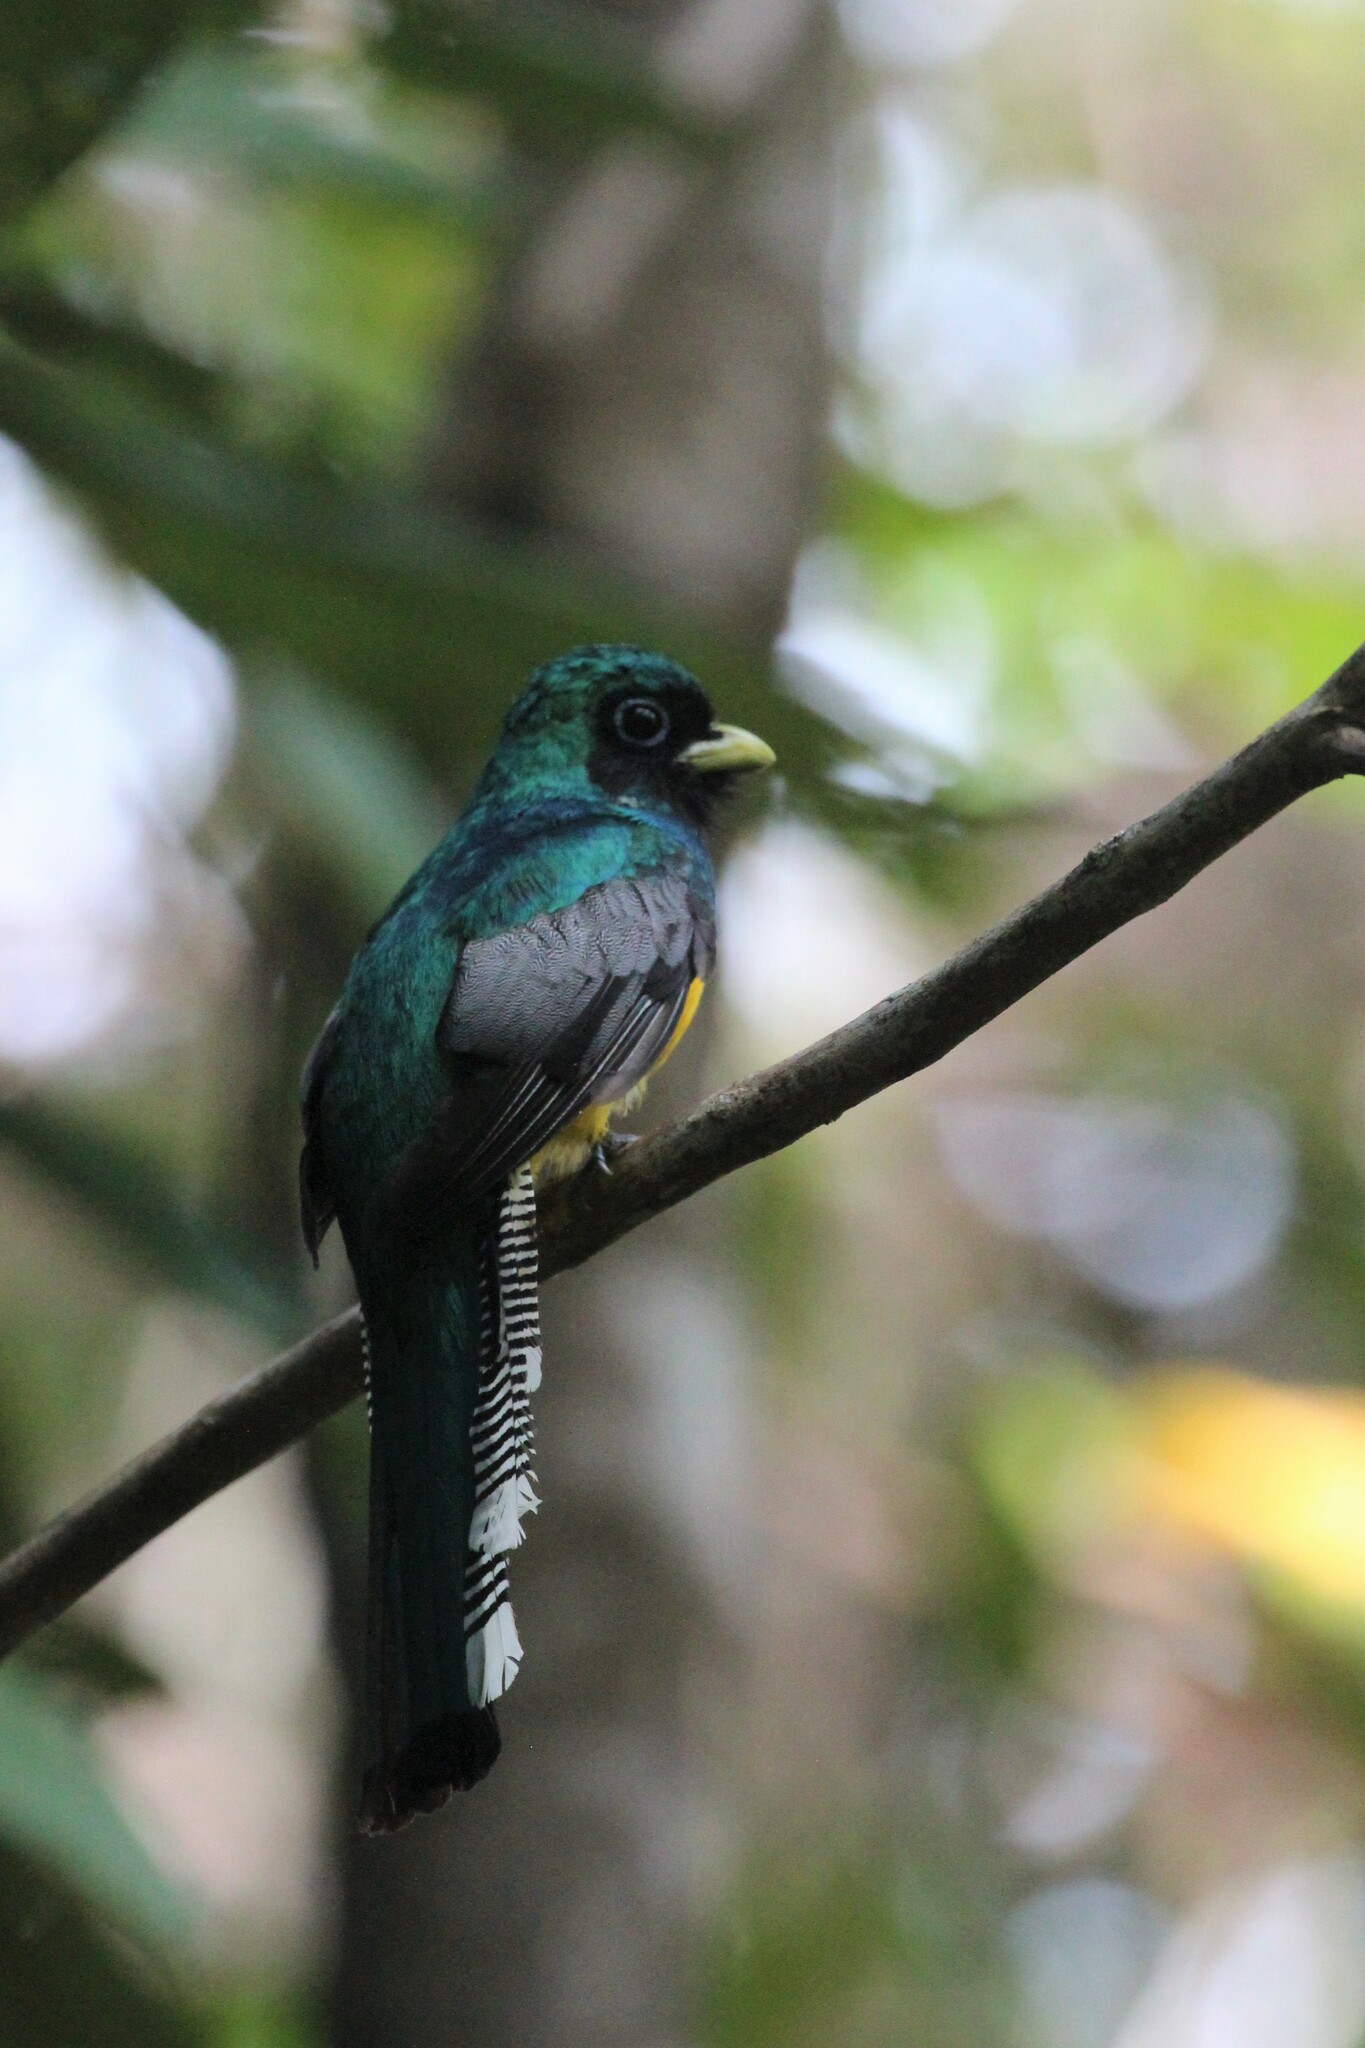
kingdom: Animalia
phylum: Chordata
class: Aves
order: Trogoniformes
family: Trogonidae
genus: Trogon
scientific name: Trogon rufus
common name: Black-throated trogon
